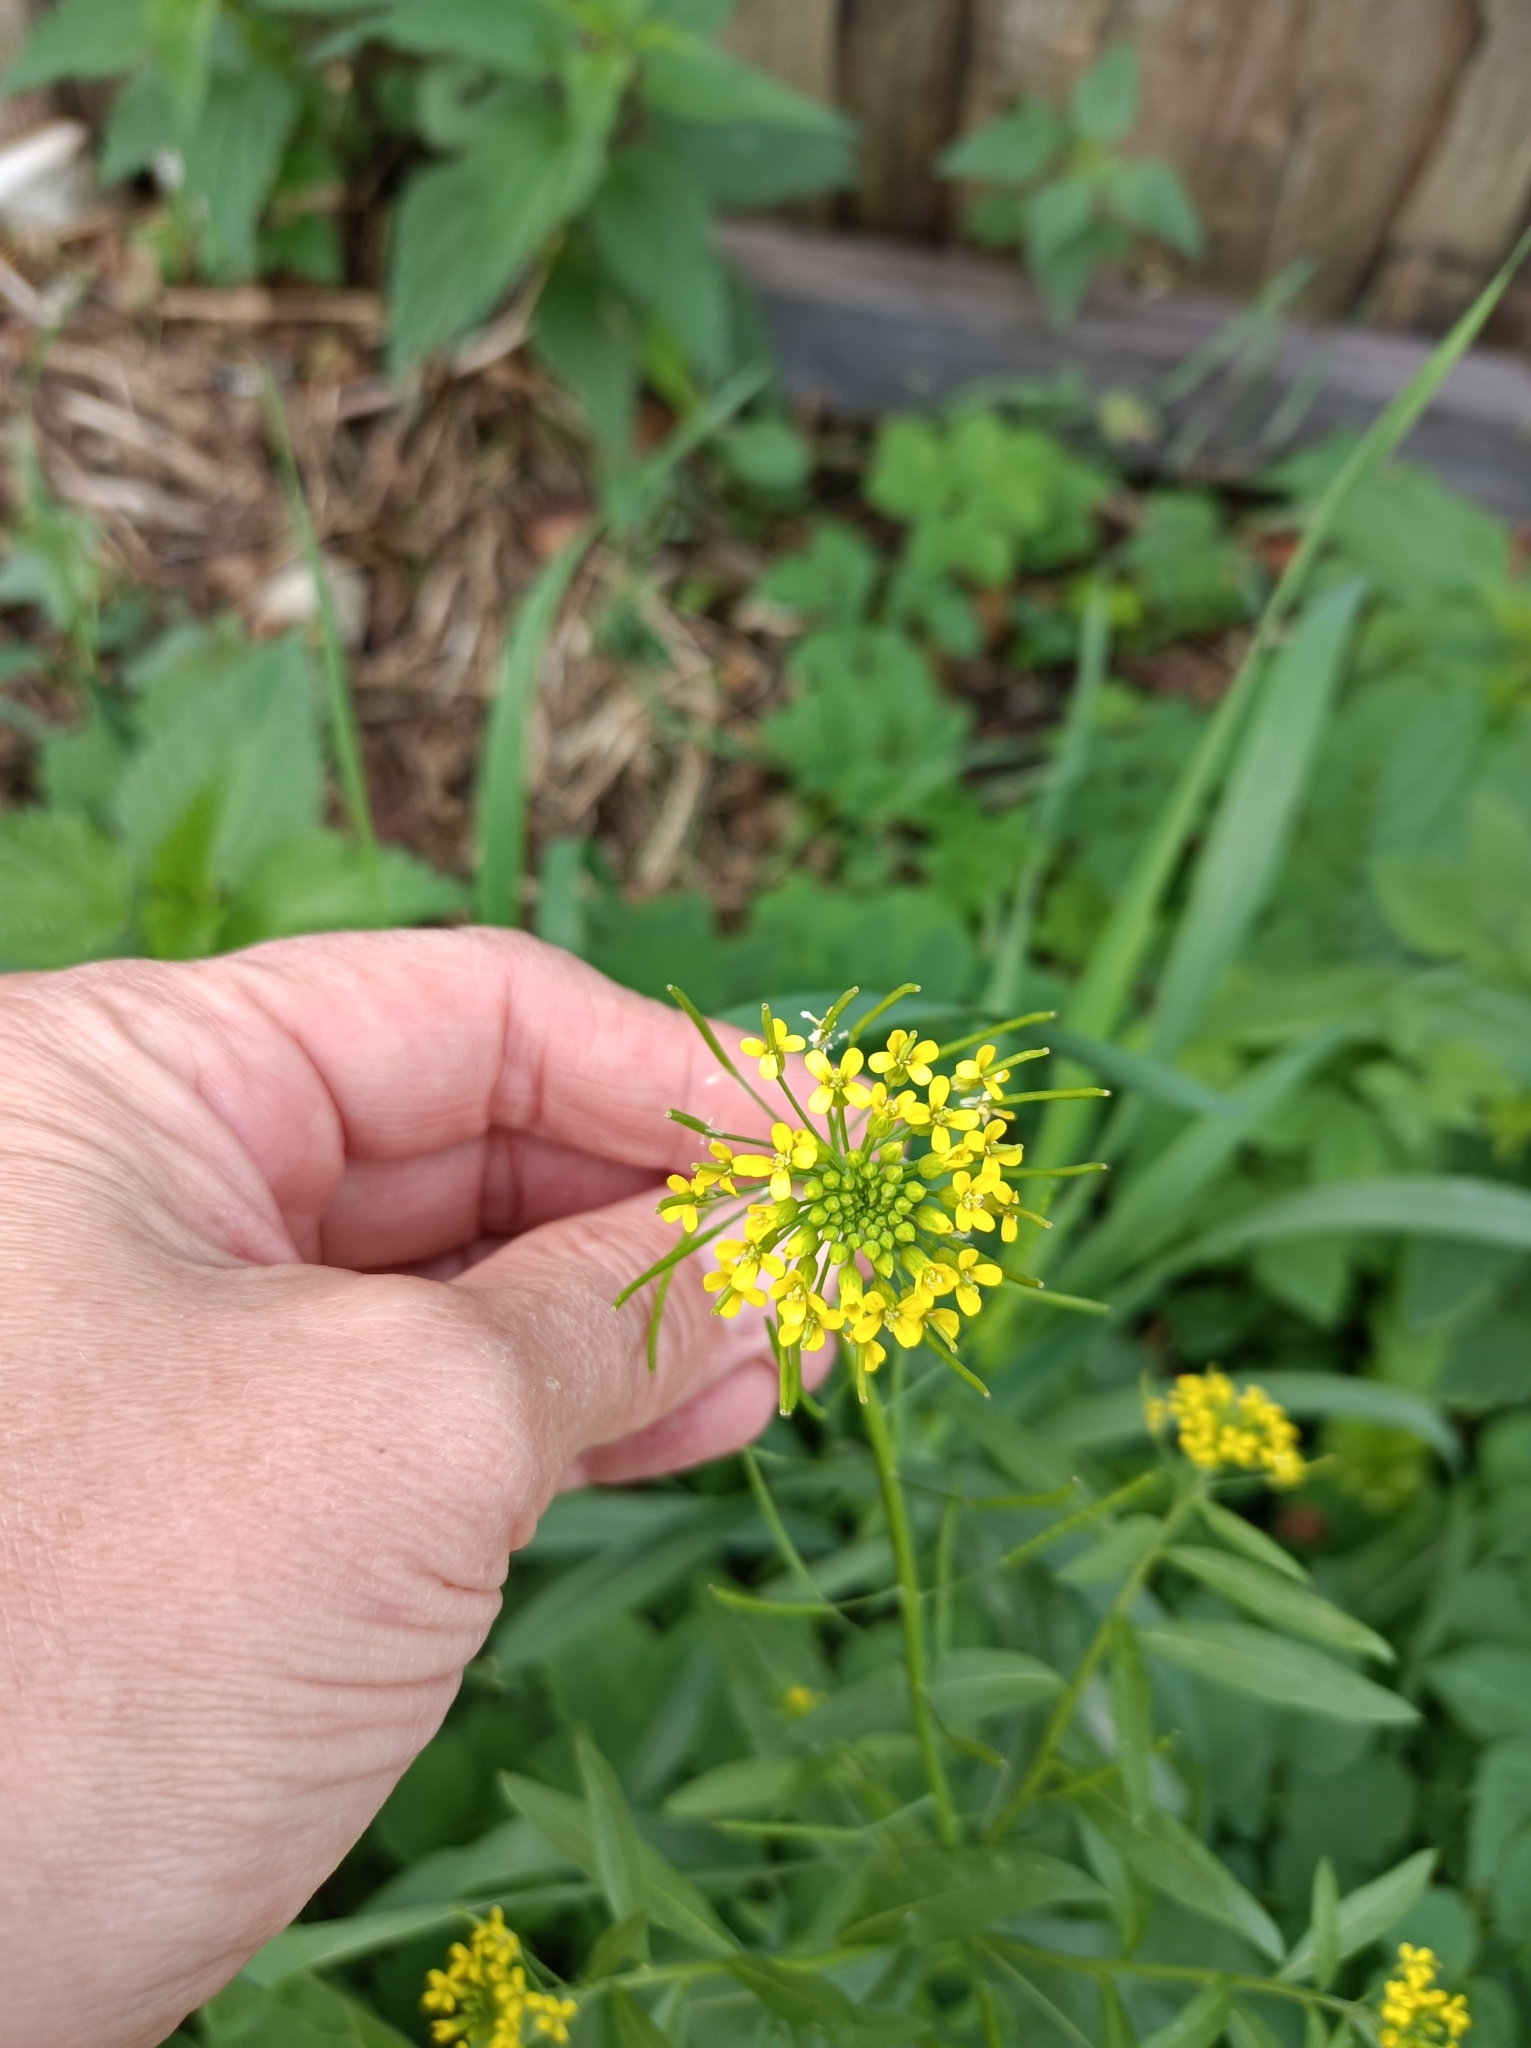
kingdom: Plantae
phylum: Tracheophyta
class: Magnoliopsida
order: Brassicales
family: Brassicaceae
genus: Erysimum
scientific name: Erysimum cheiranthoides
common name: Treacle mustard
